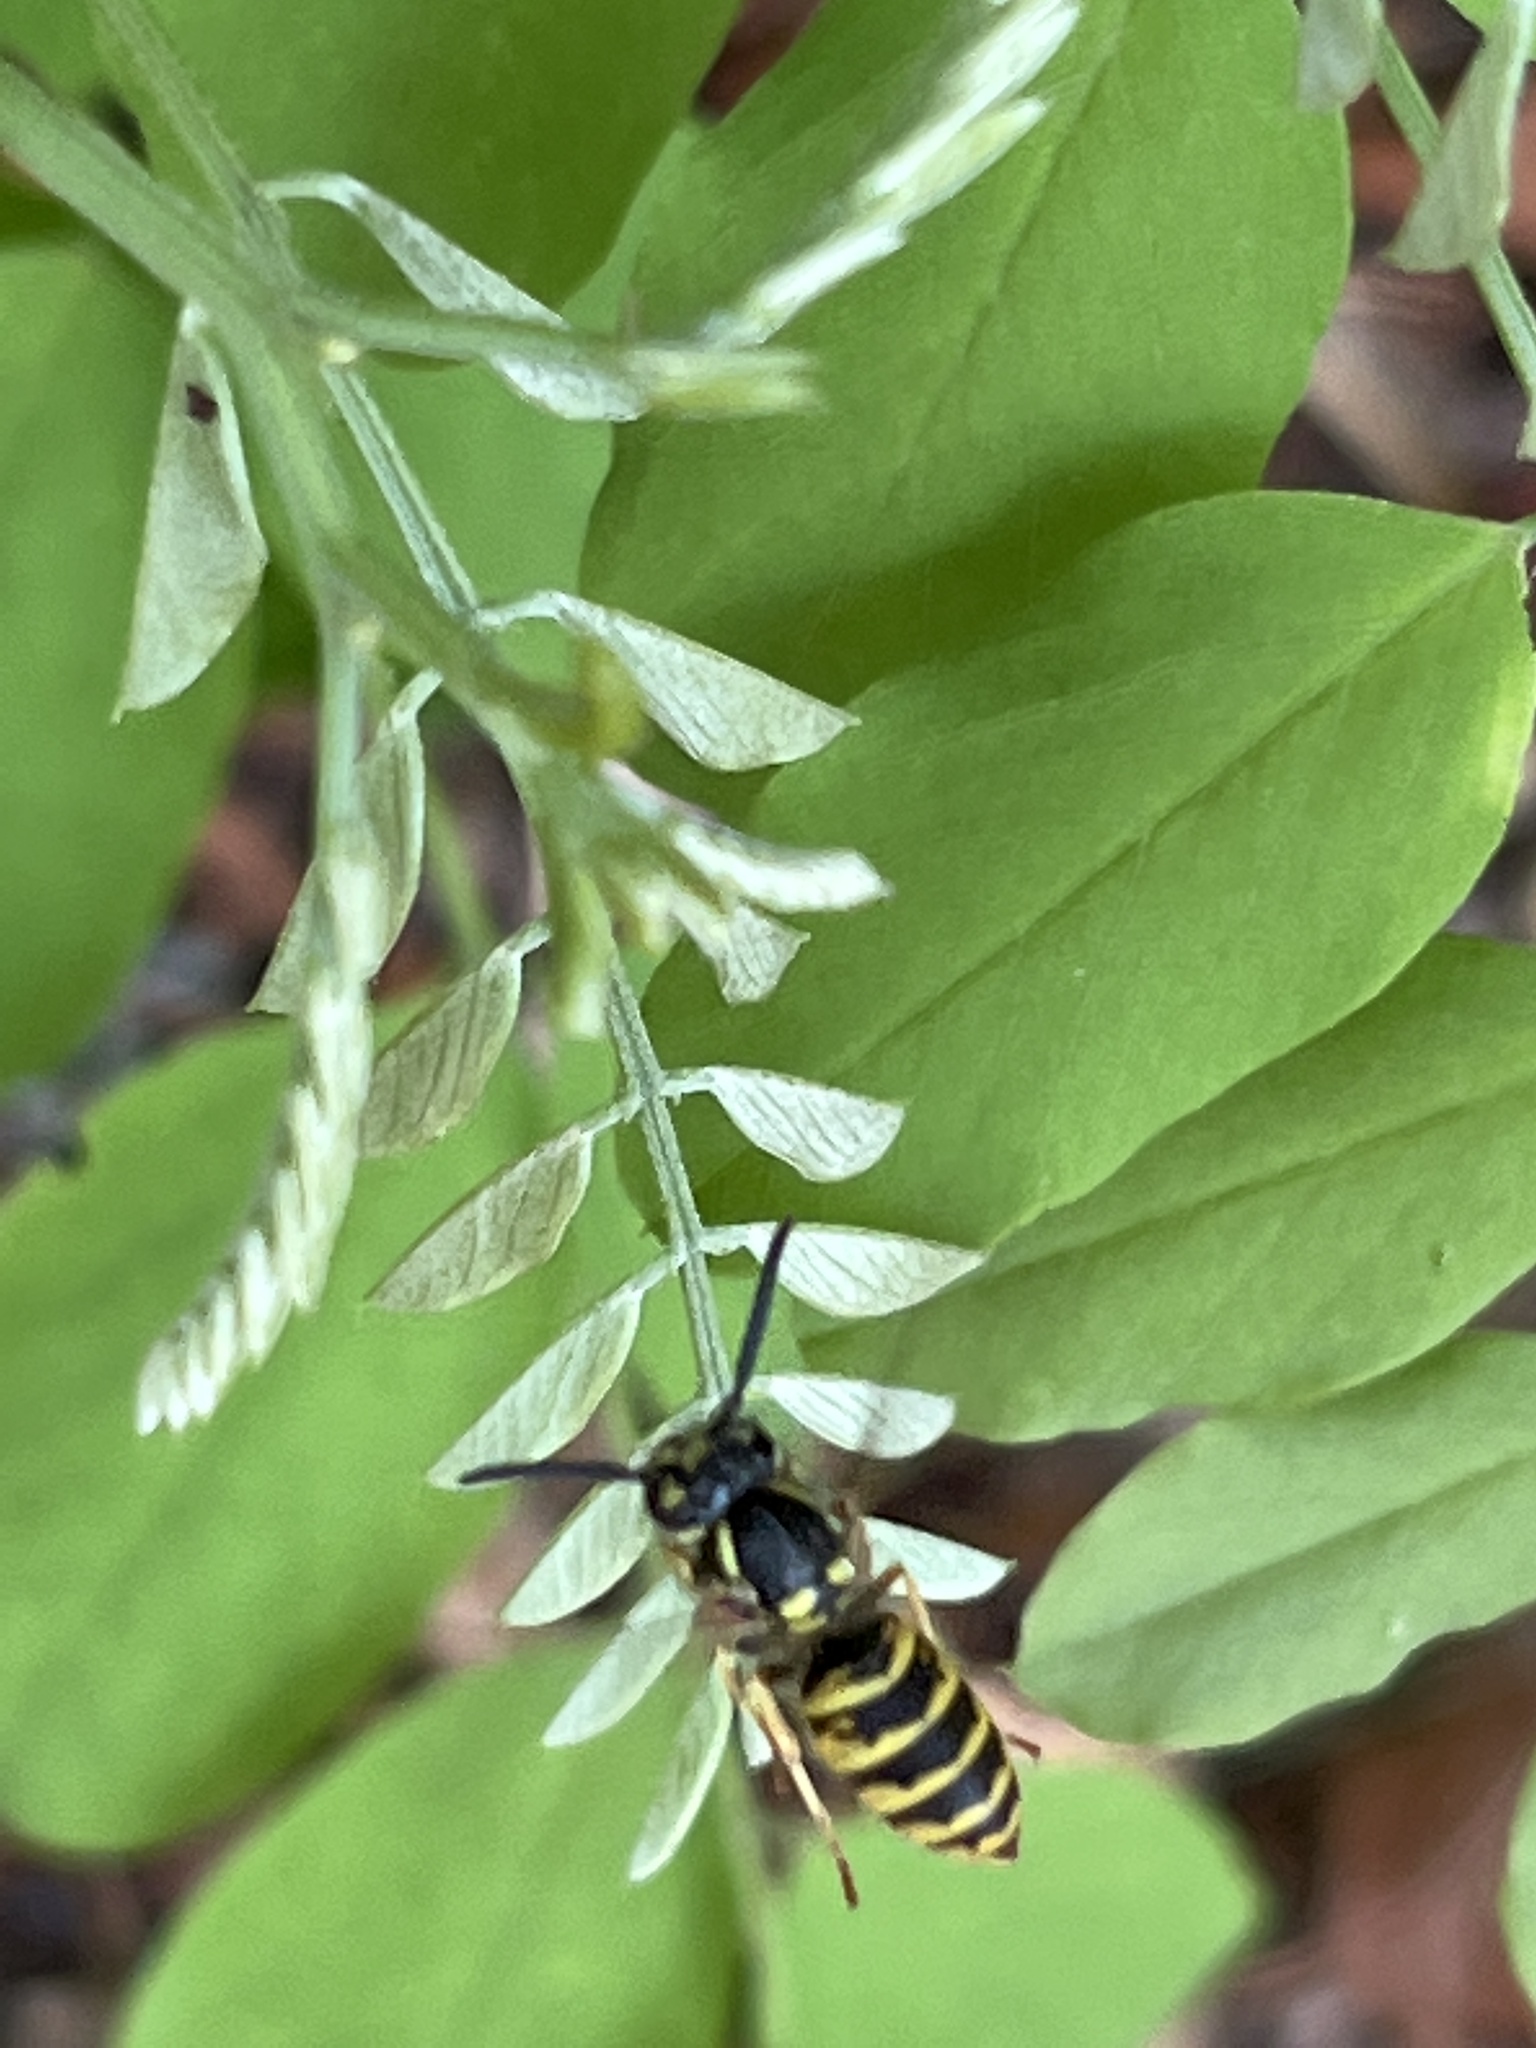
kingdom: Animalia
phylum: Arthropoda
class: Insecta
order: Hymenoptera
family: Vespidae
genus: Vespula
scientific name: Vespula vulgaris
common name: Common wasp
